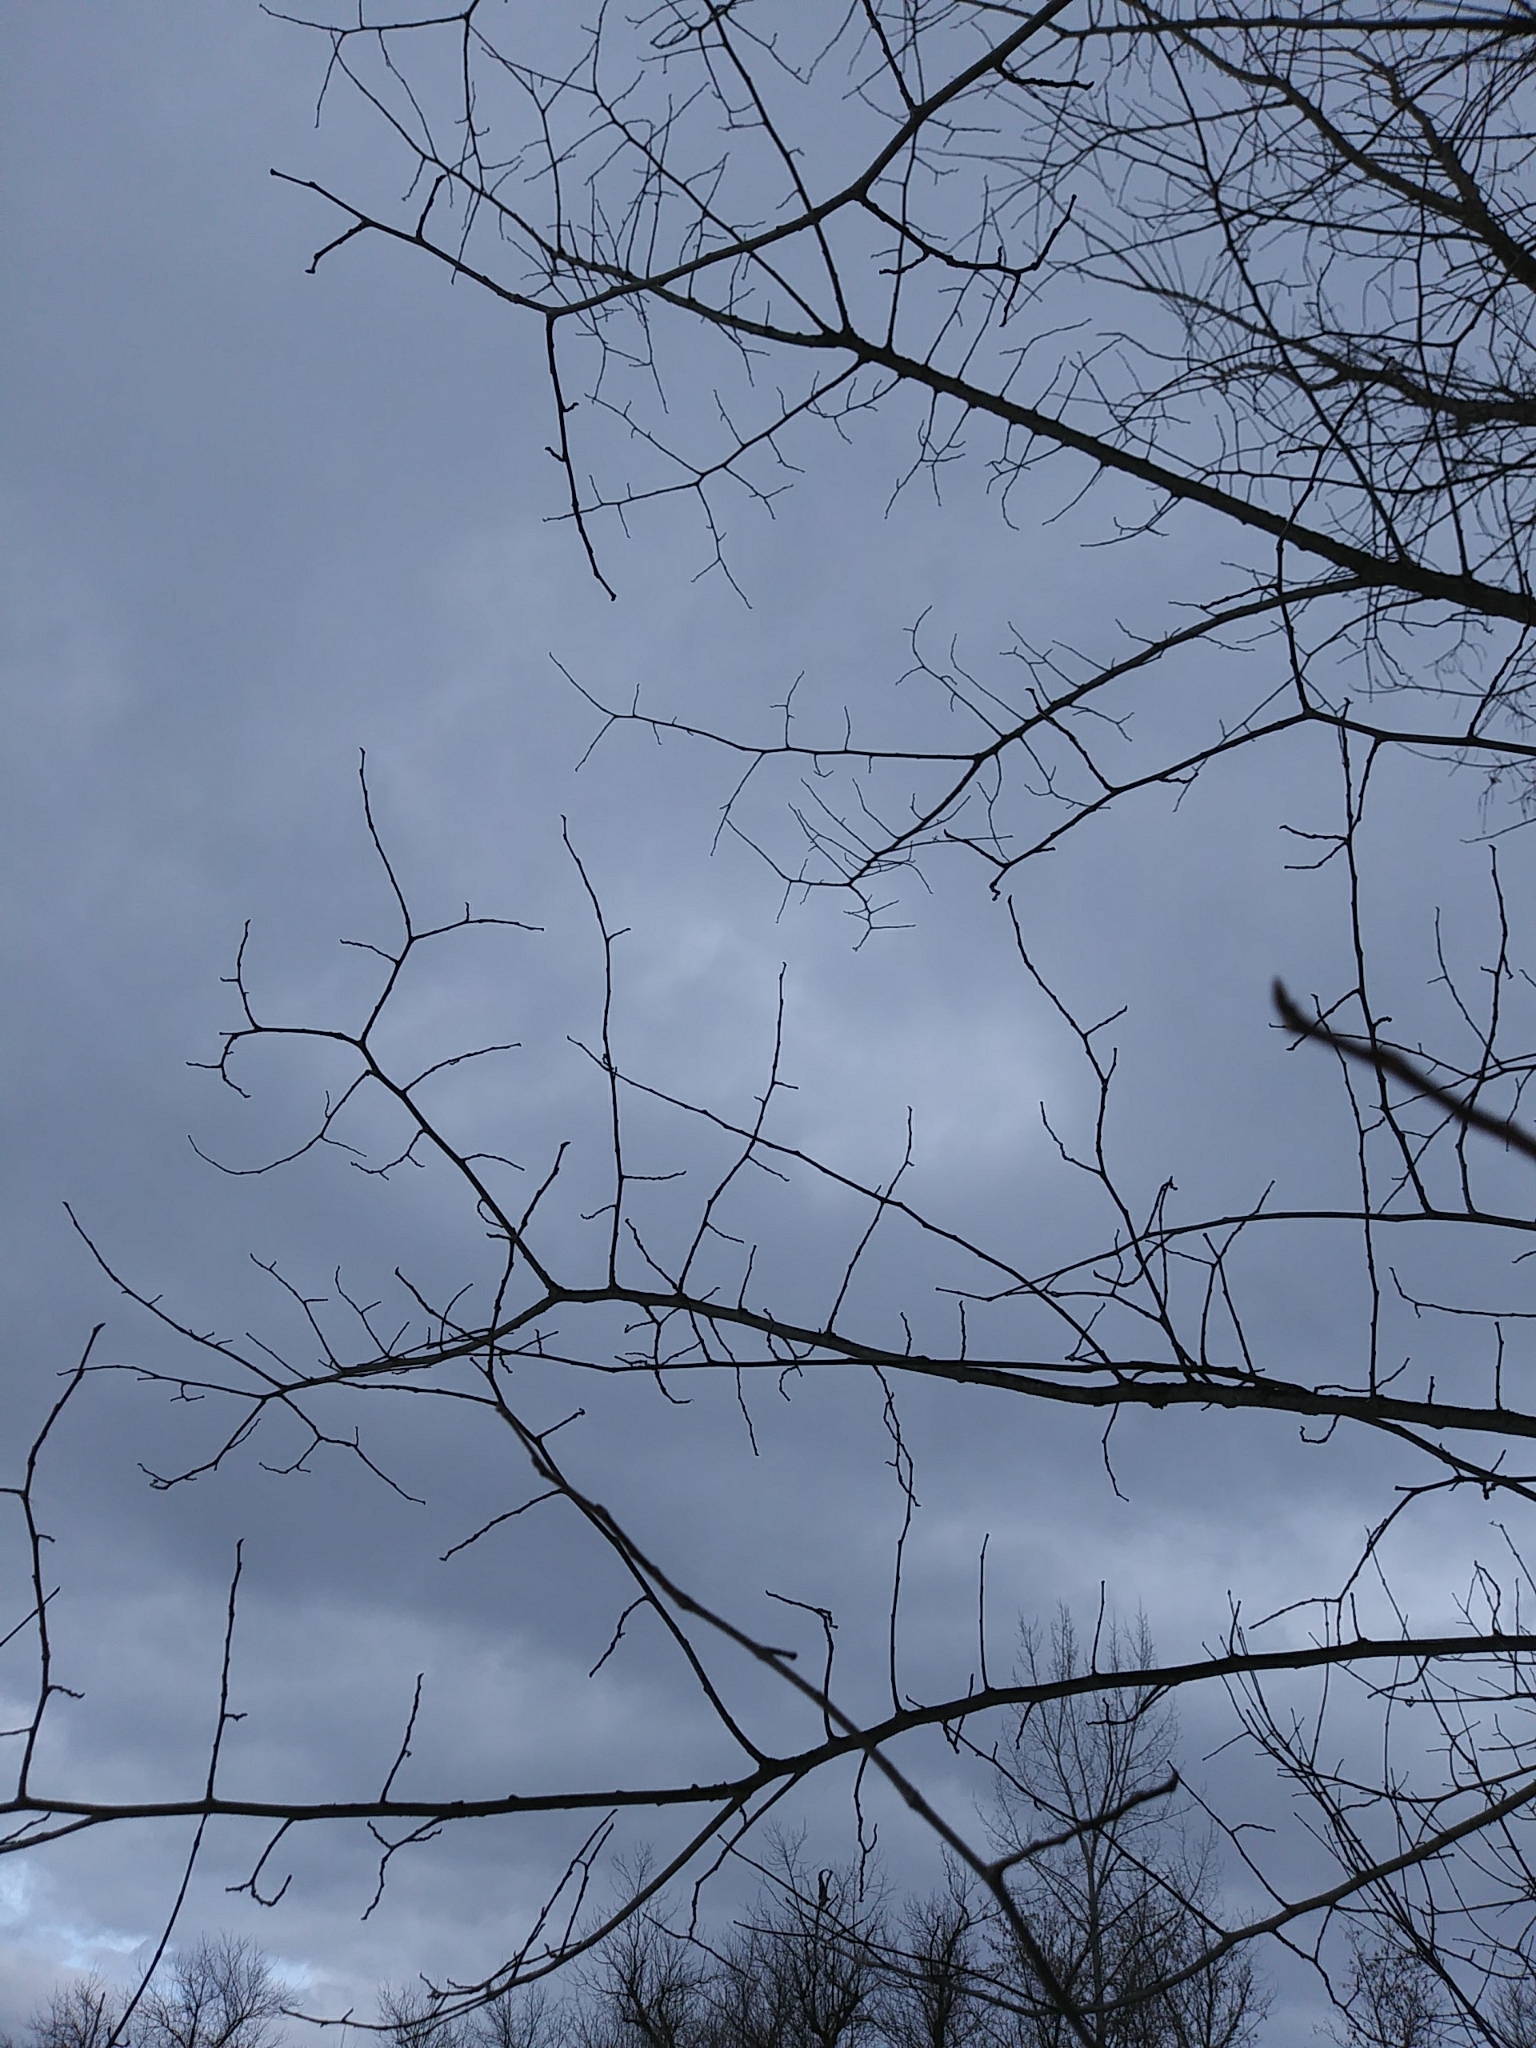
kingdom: Plantae
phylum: Tracheophyta
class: Magnoliopsida
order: Rosales
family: Ulmaceae
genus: Ulmus
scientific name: Ulmus americana
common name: American elm
